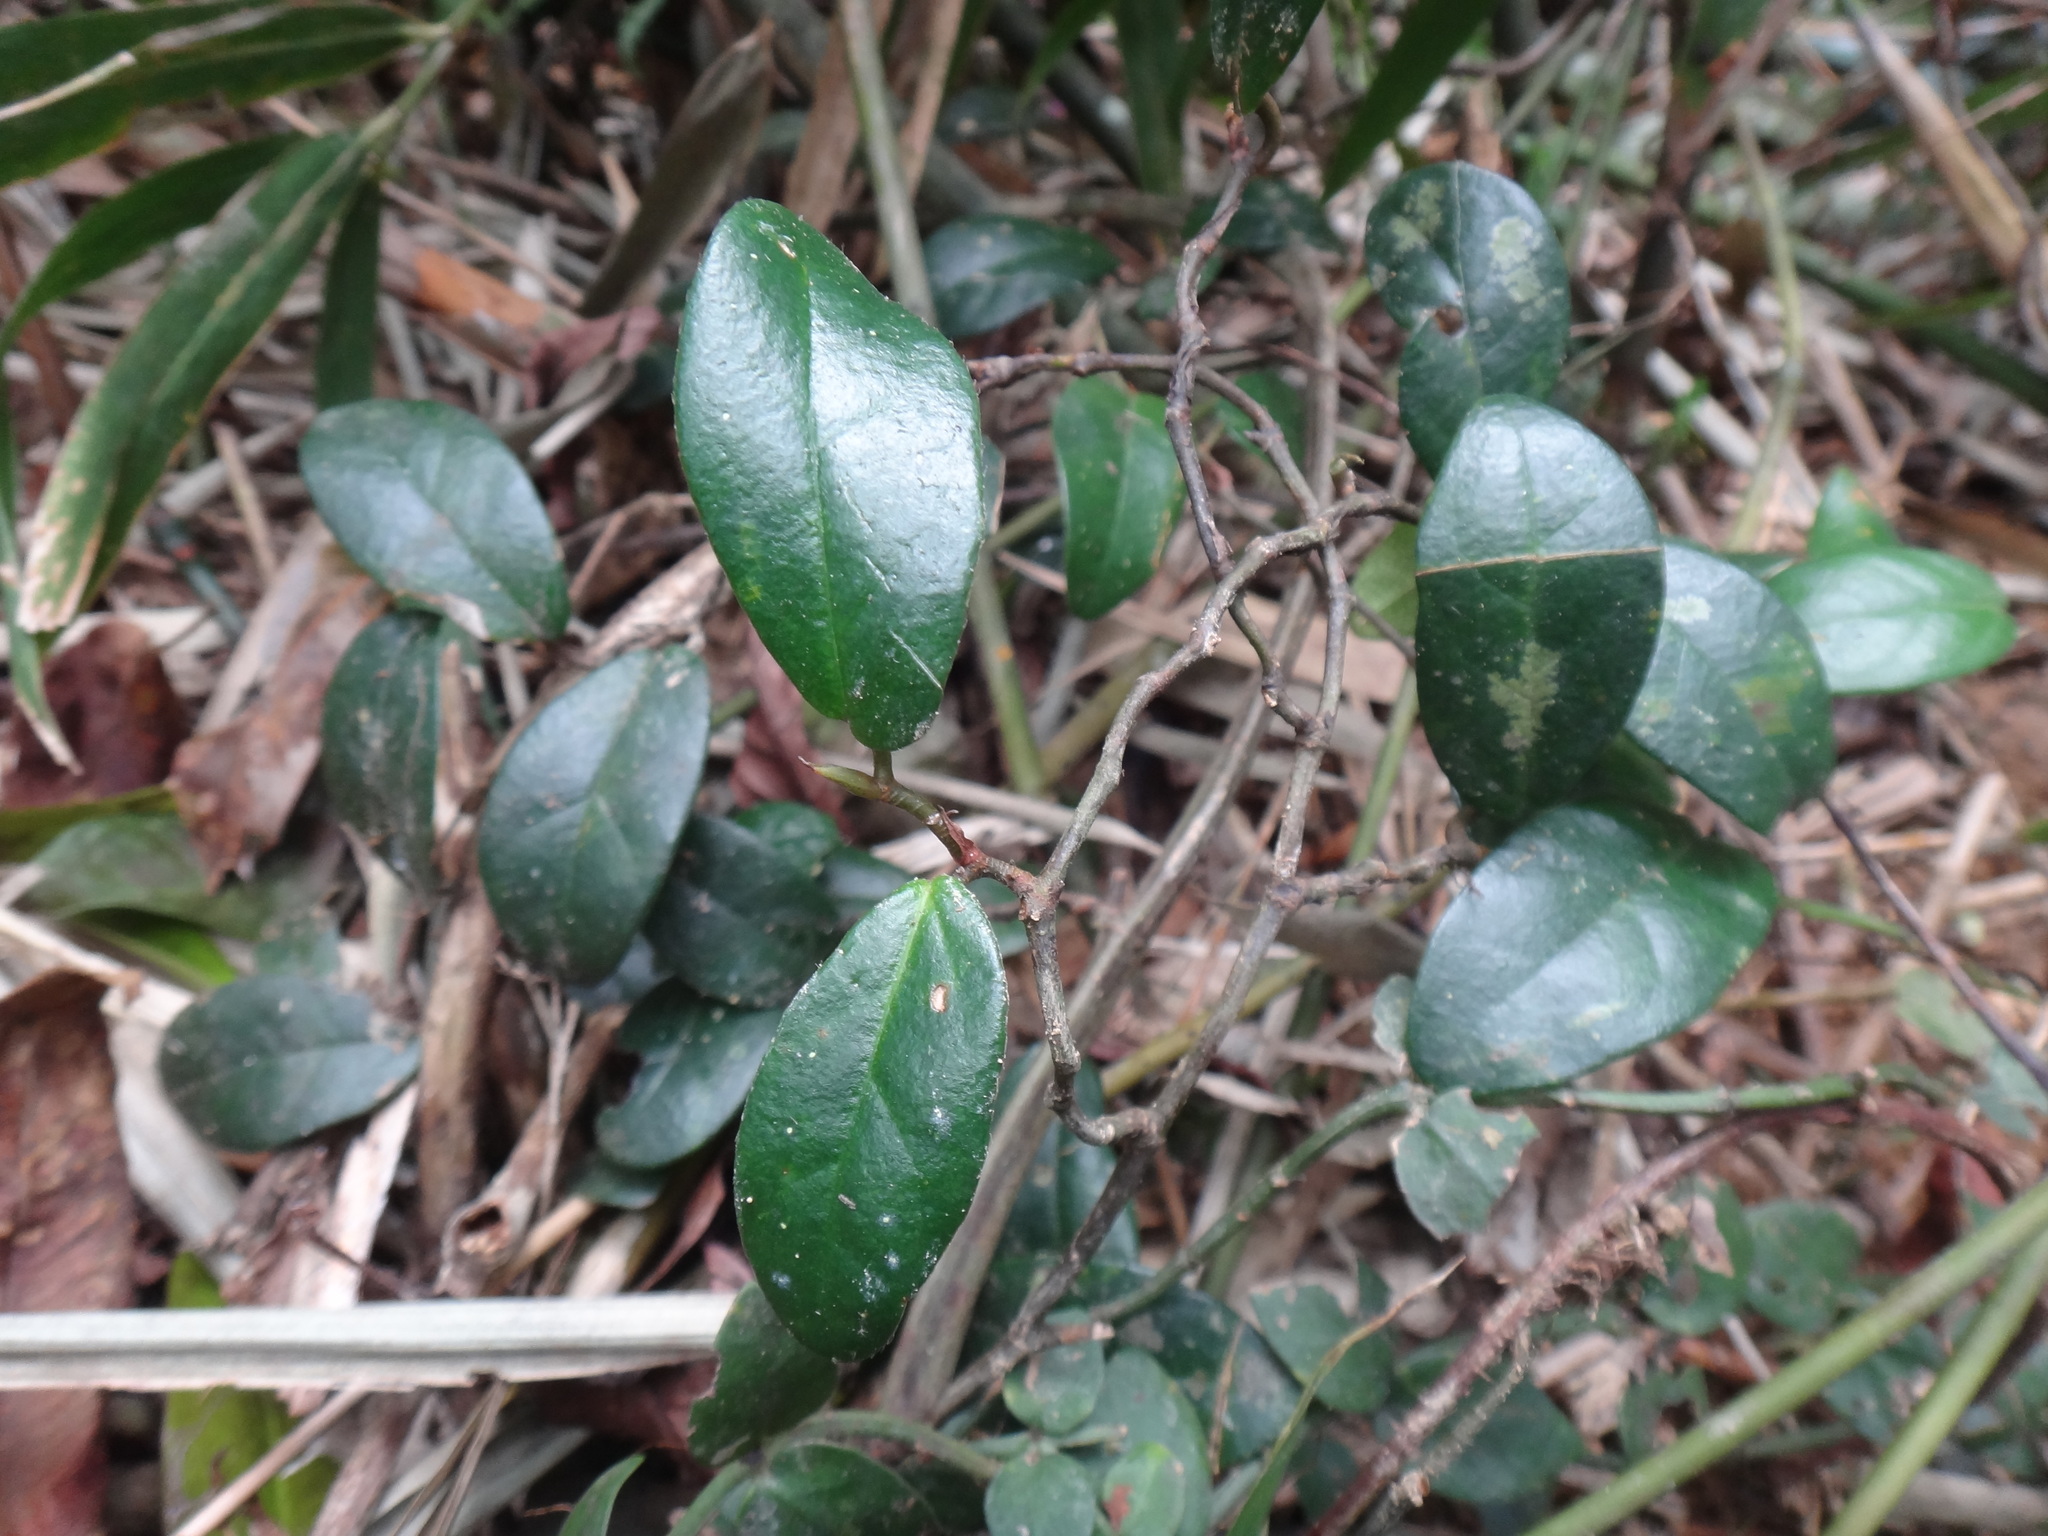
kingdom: Plantae
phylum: Tracheophyta
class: Magnoliopsida
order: Rosales
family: Moraceae
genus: Ficus
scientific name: Ficus punctata
